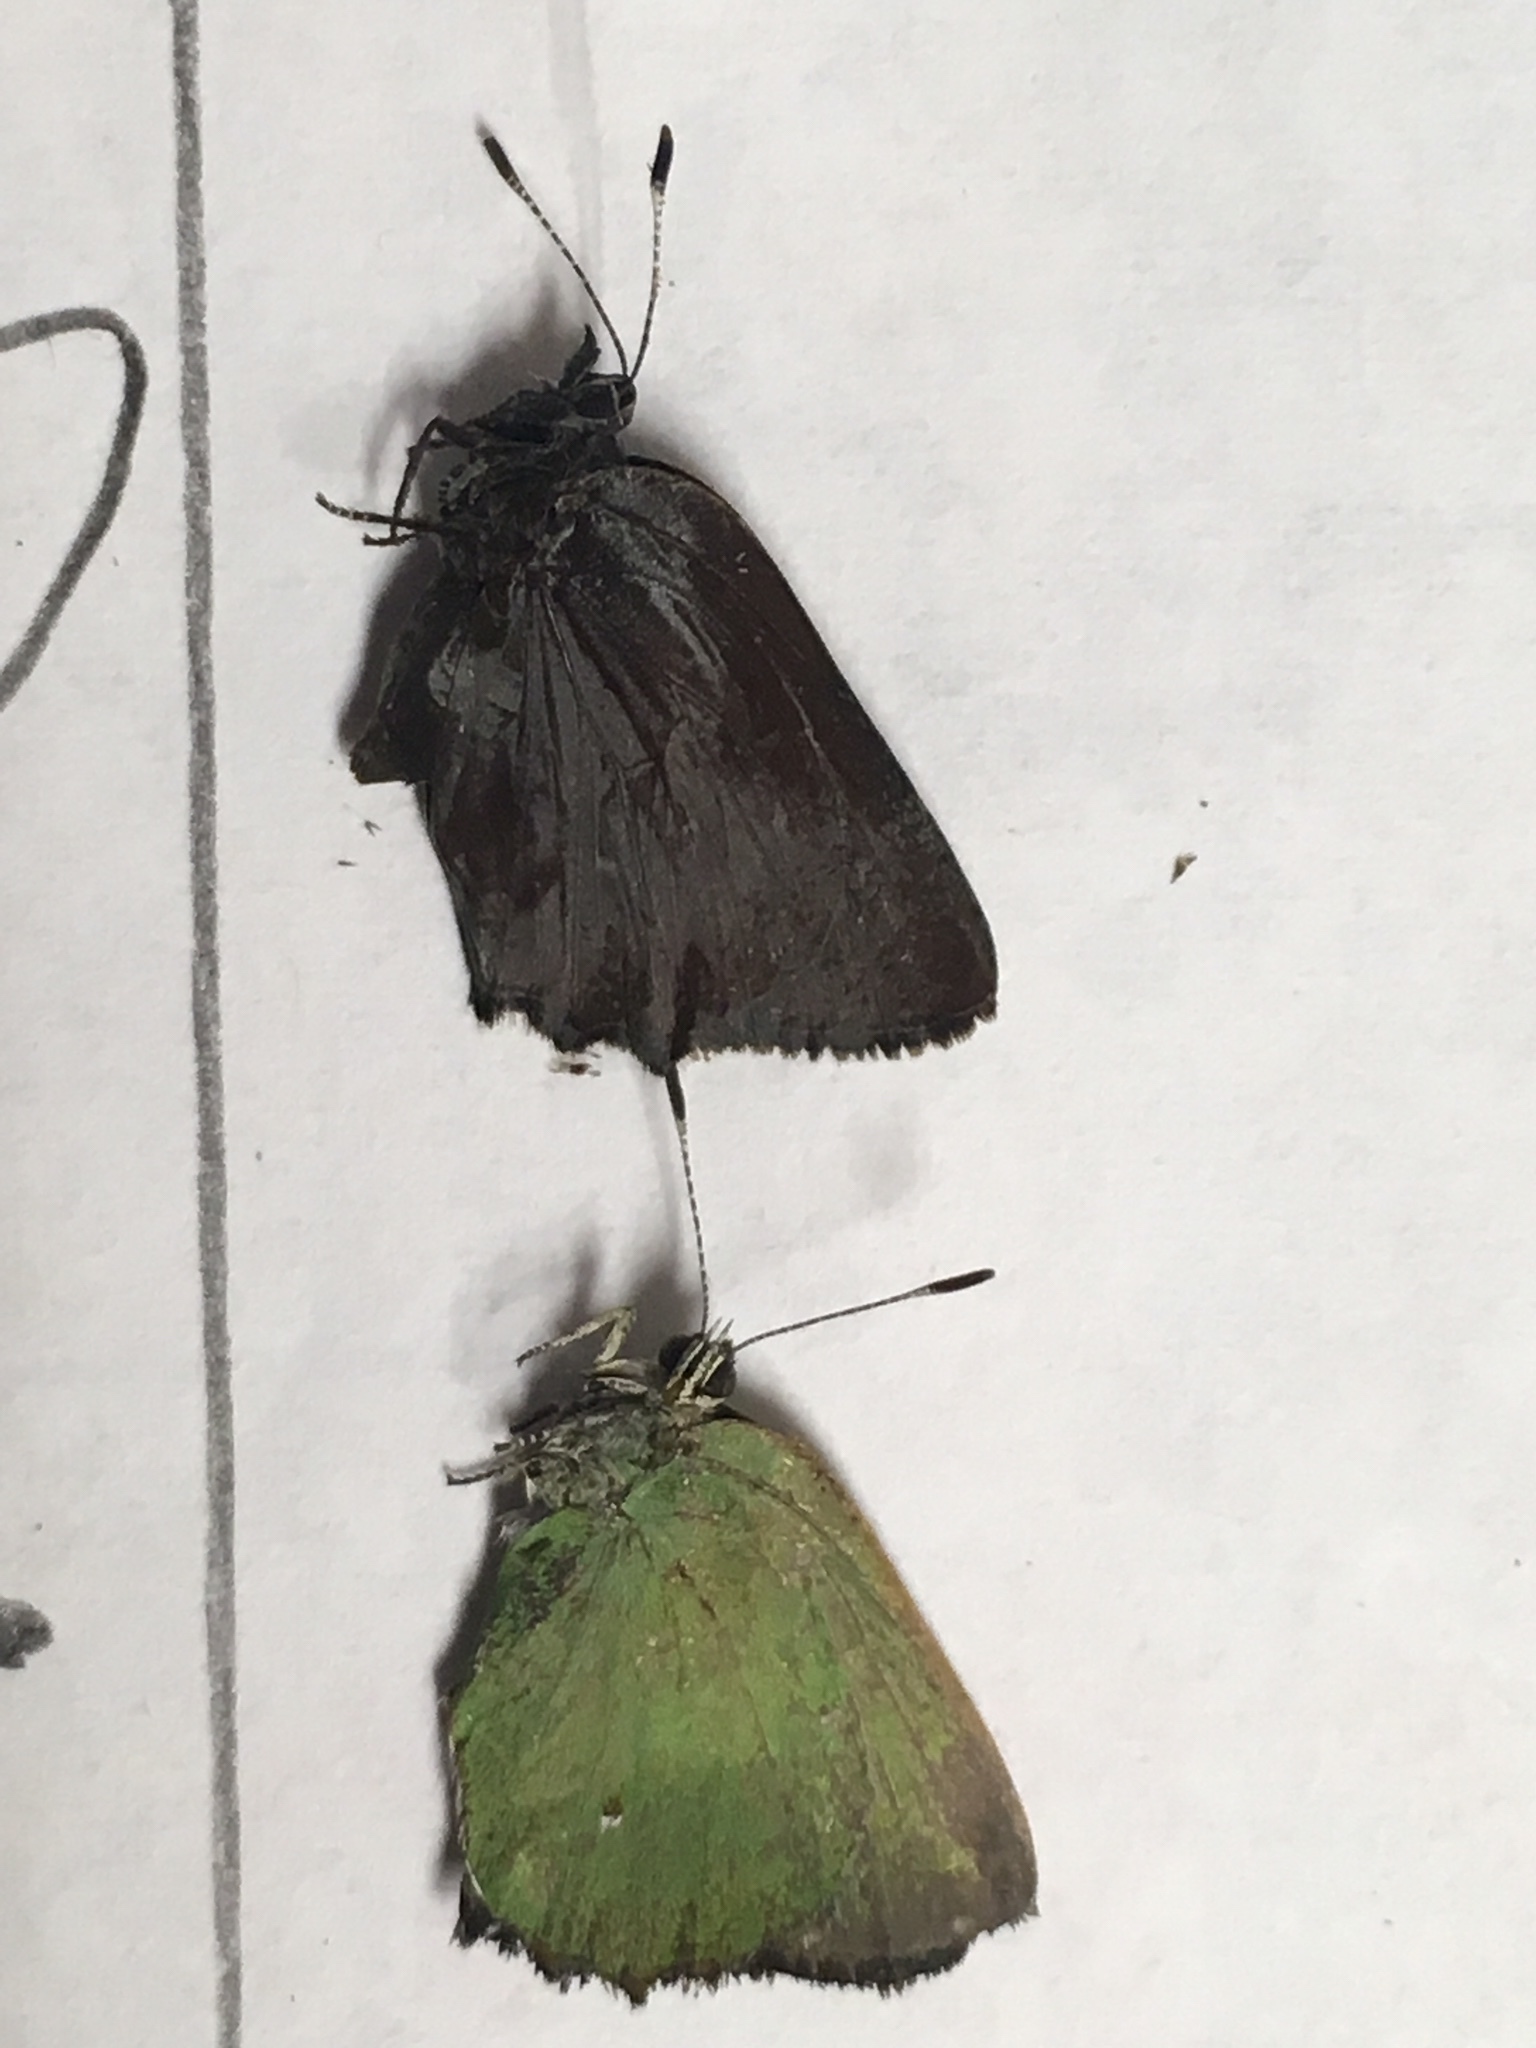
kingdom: Animalia
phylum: Arthropoda
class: Insecta
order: Lepidoptera
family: Lycaenidae
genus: Callophrys
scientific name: Callophrys dumetorum
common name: Bramble hairstreak
